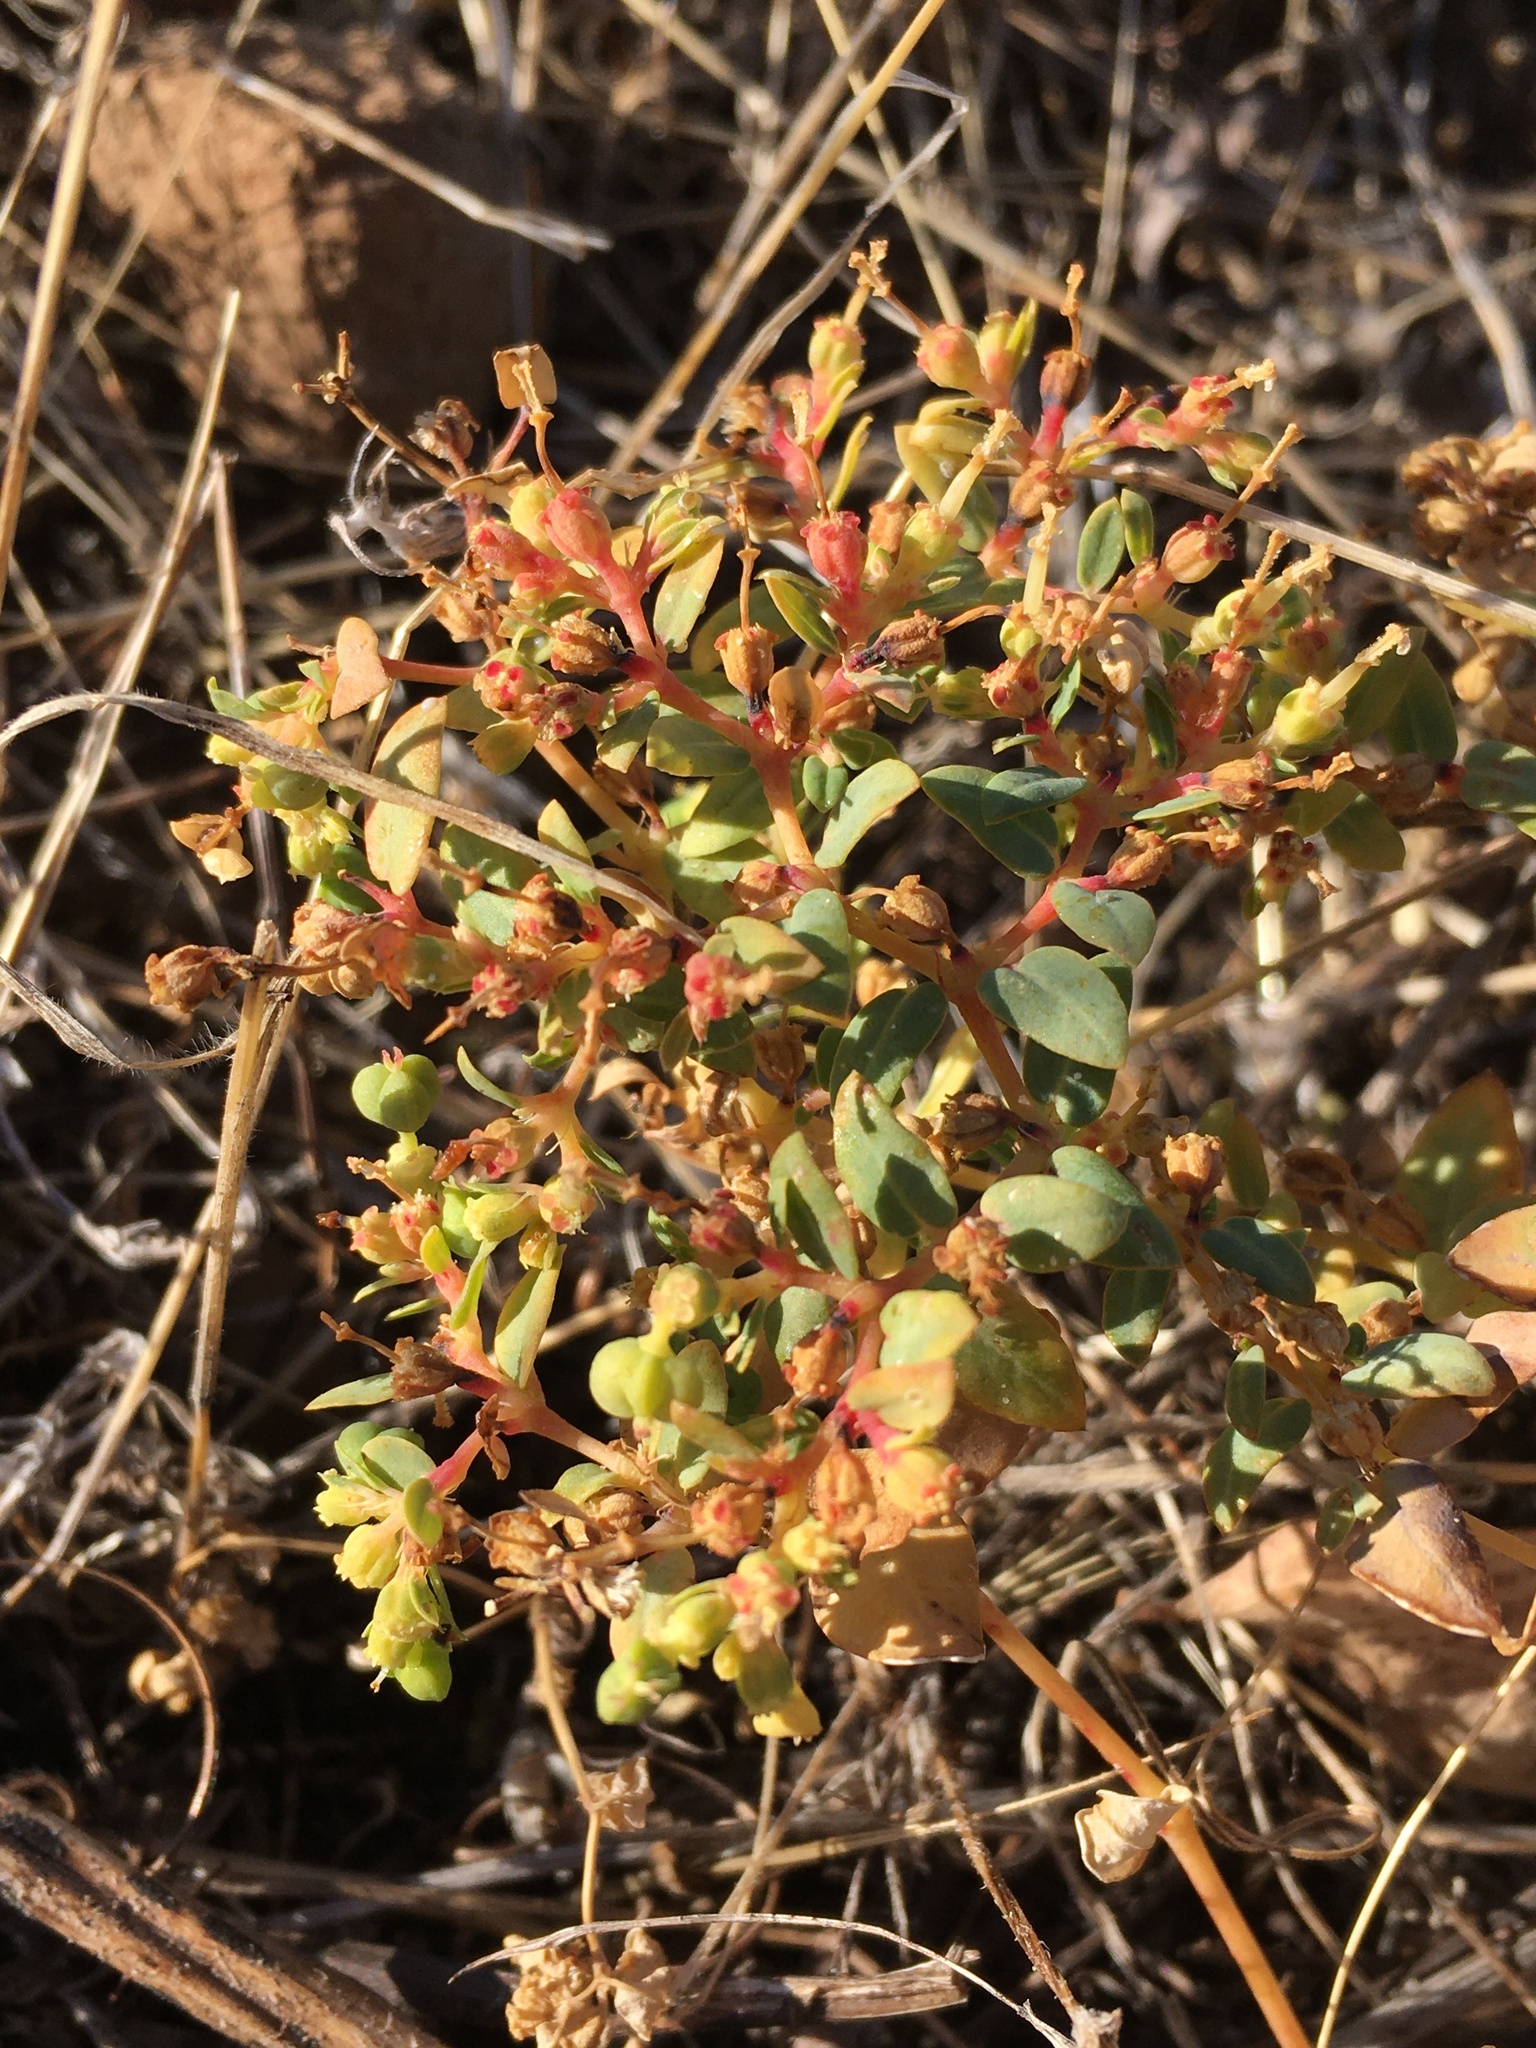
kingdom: Plantae
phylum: Tracheophyta
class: Magnoliopsida
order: Malpighiales
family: Euphorbiaceae
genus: Euphorbia
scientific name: Euphorbia ocellata
